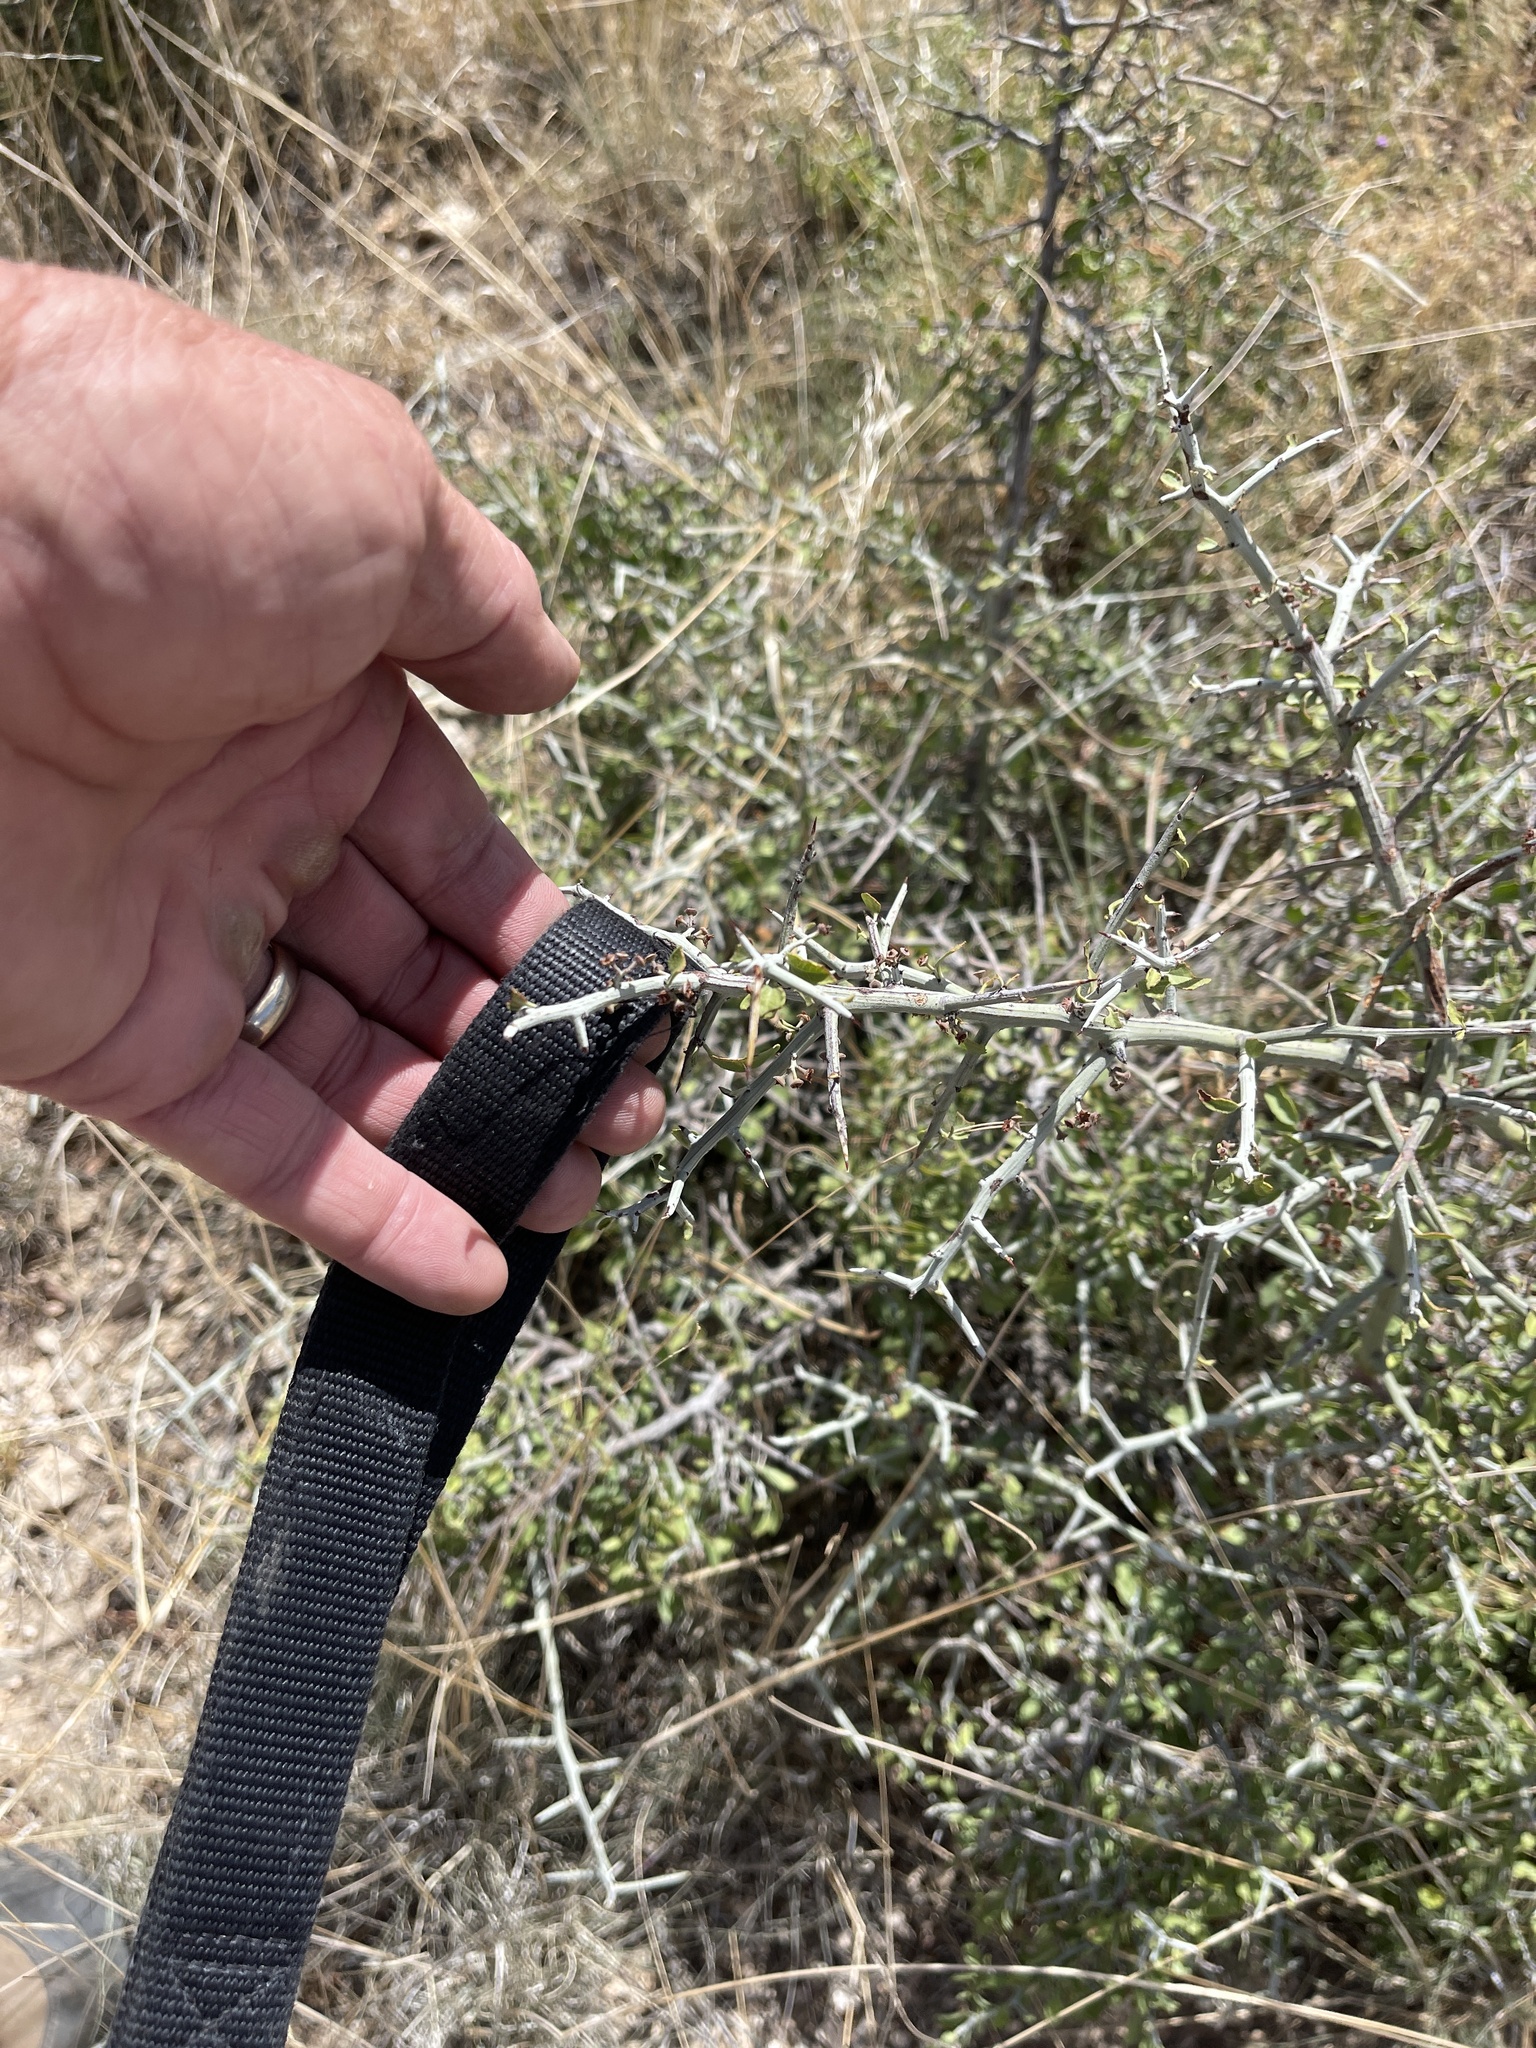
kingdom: Plantae
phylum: Tracheophyta
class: Magnoliopsida
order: Rosales
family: Rhamnaceae
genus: Sarcomphalus
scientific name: Sarcomphalus obtusifolius
